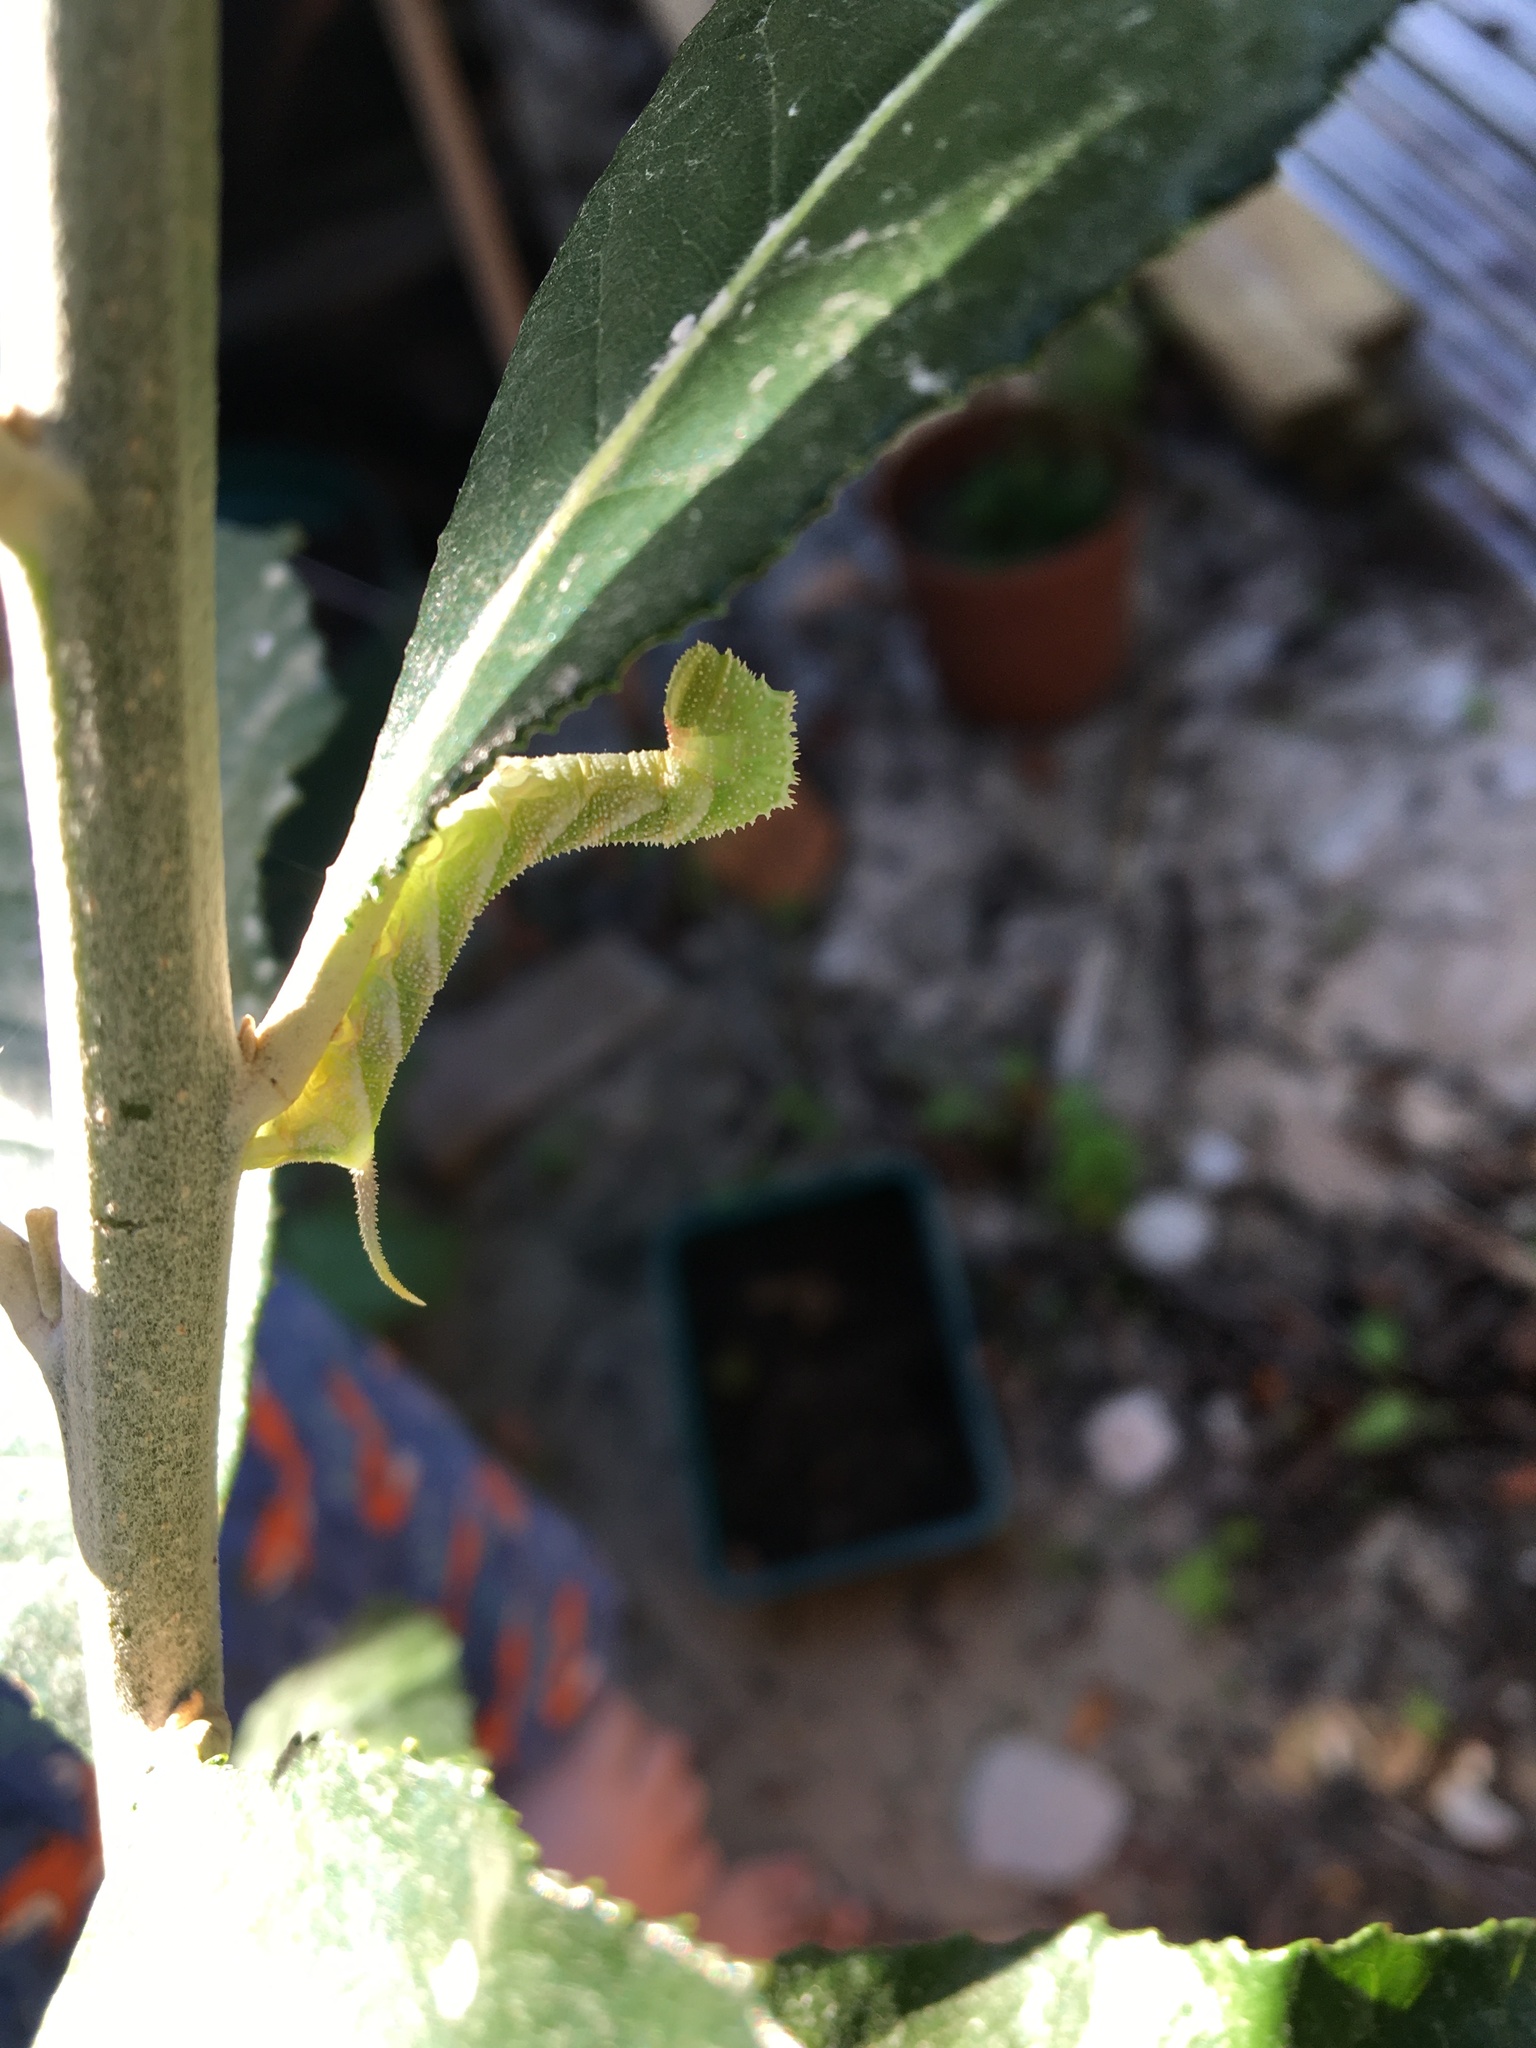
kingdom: Animalia
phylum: Arthropoda
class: Insecta
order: Lepidoptera
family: Sphingidae
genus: Coelonia
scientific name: Coelonia fulvinotata
